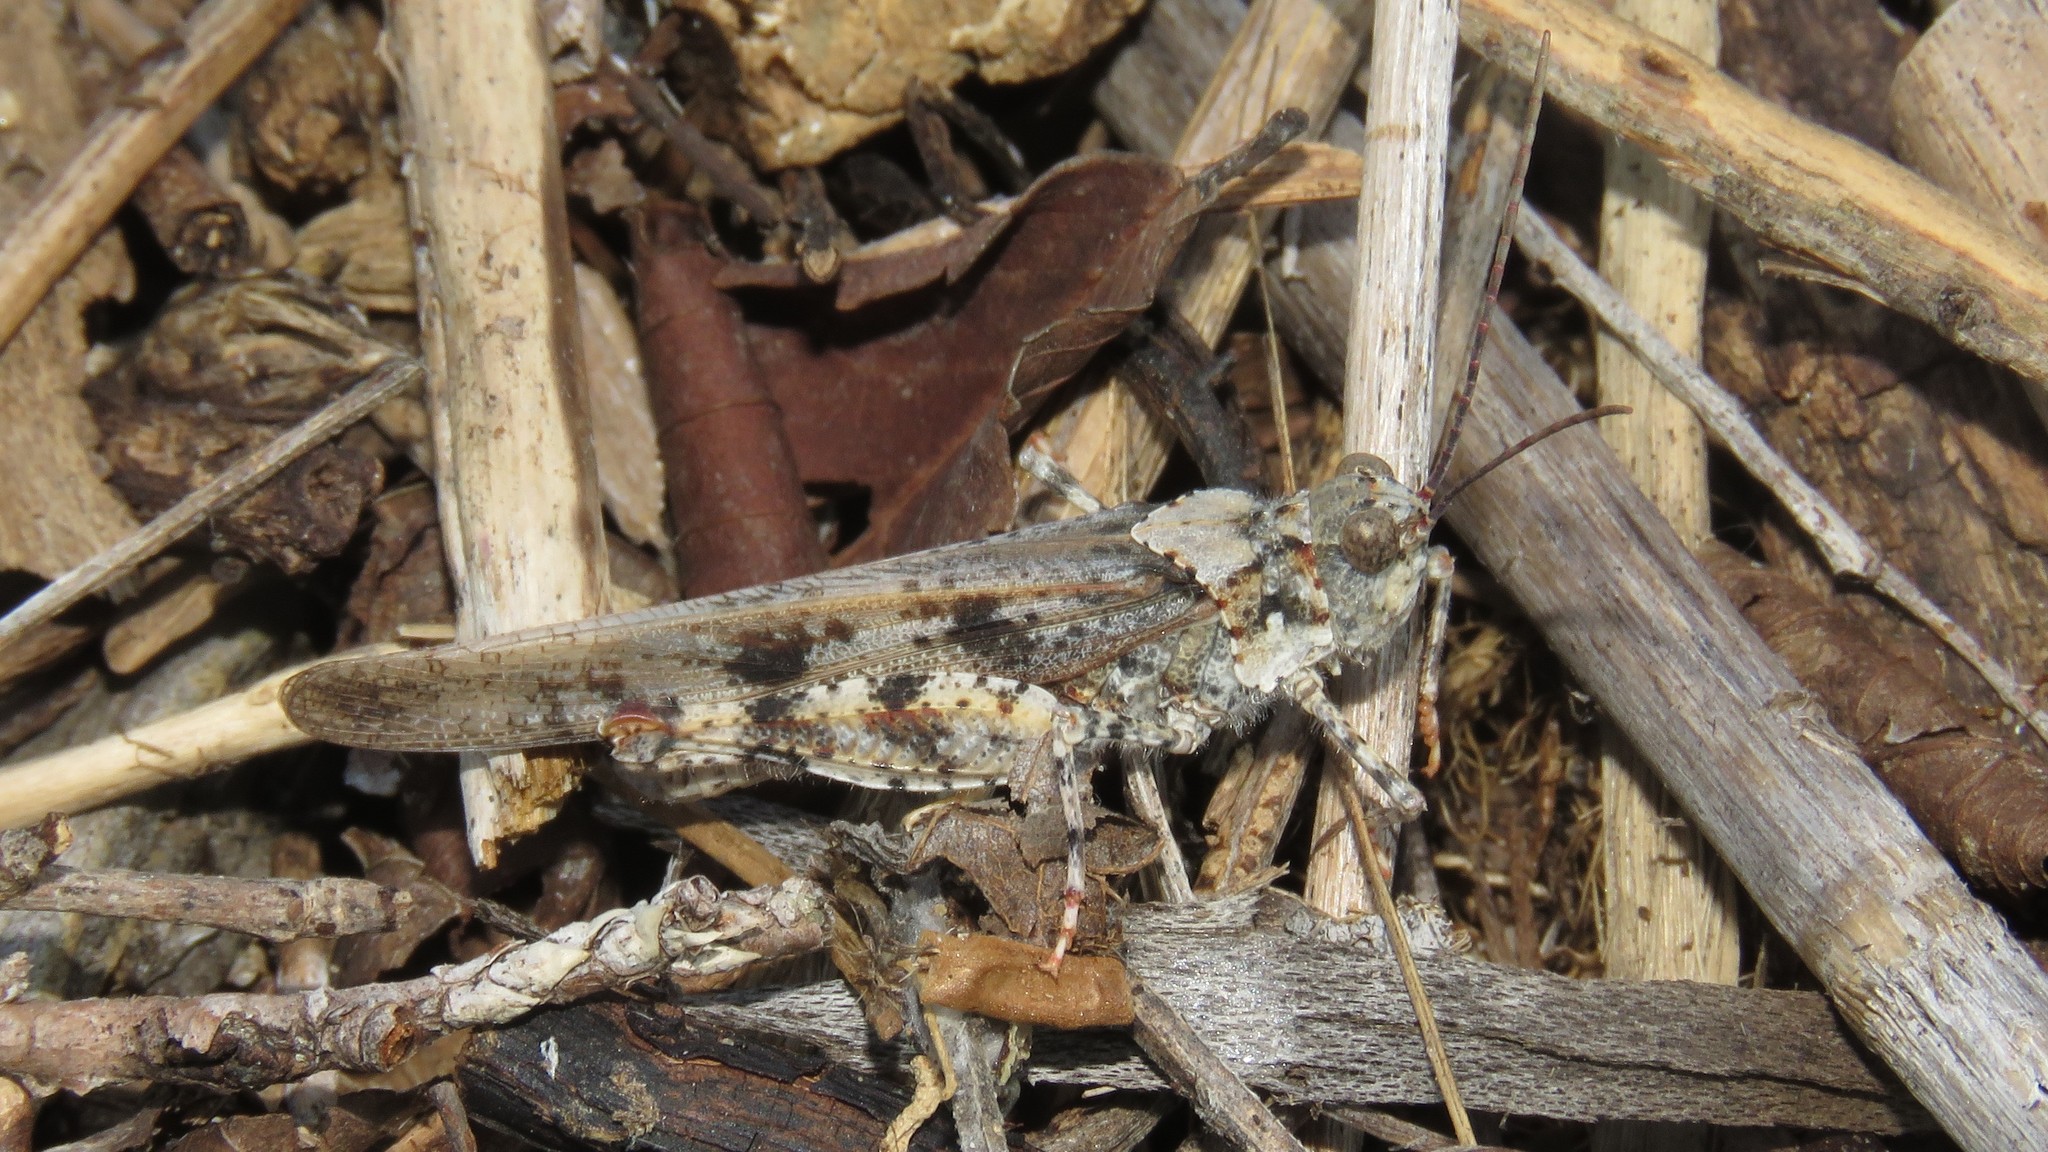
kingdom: Animalia
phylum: Arthropoda
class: Insecta
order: Orthoptera
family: Acrididae
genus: Trimerotropis
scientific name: Trimerotropis maritima
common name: Seaside locust
